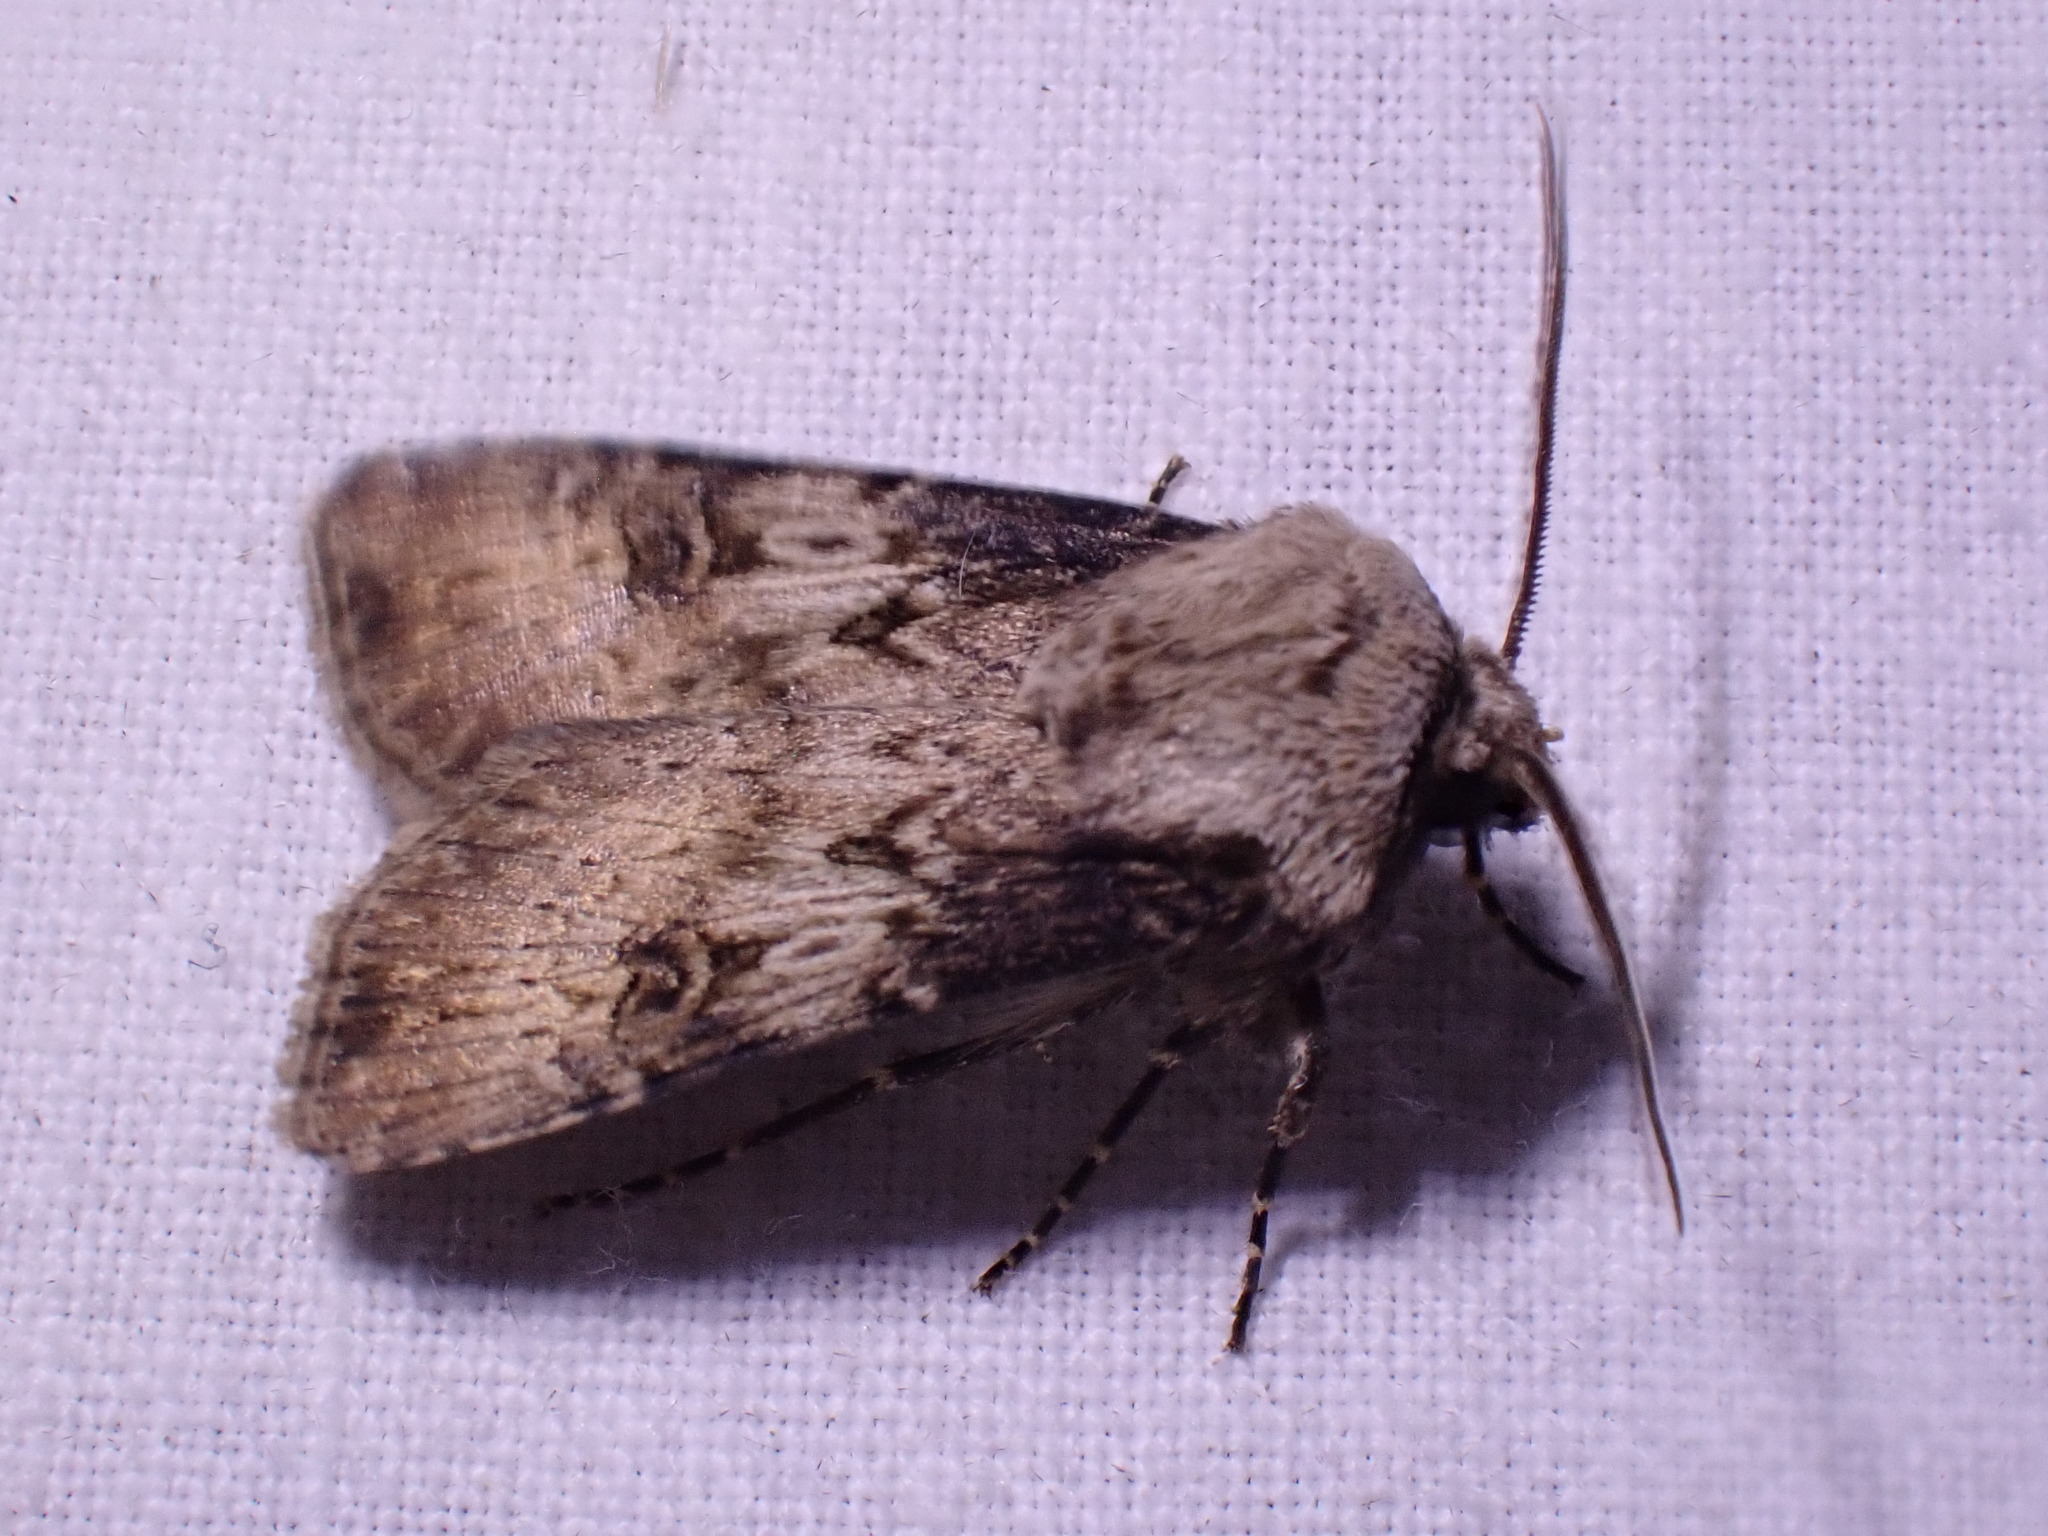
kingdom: Animalia
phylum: Arthropoda
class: Insecta
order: Lepidoptera
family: Noctuidae
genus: Agrotis
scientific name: Agrotis puta
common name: Shuttle-shaped dart
